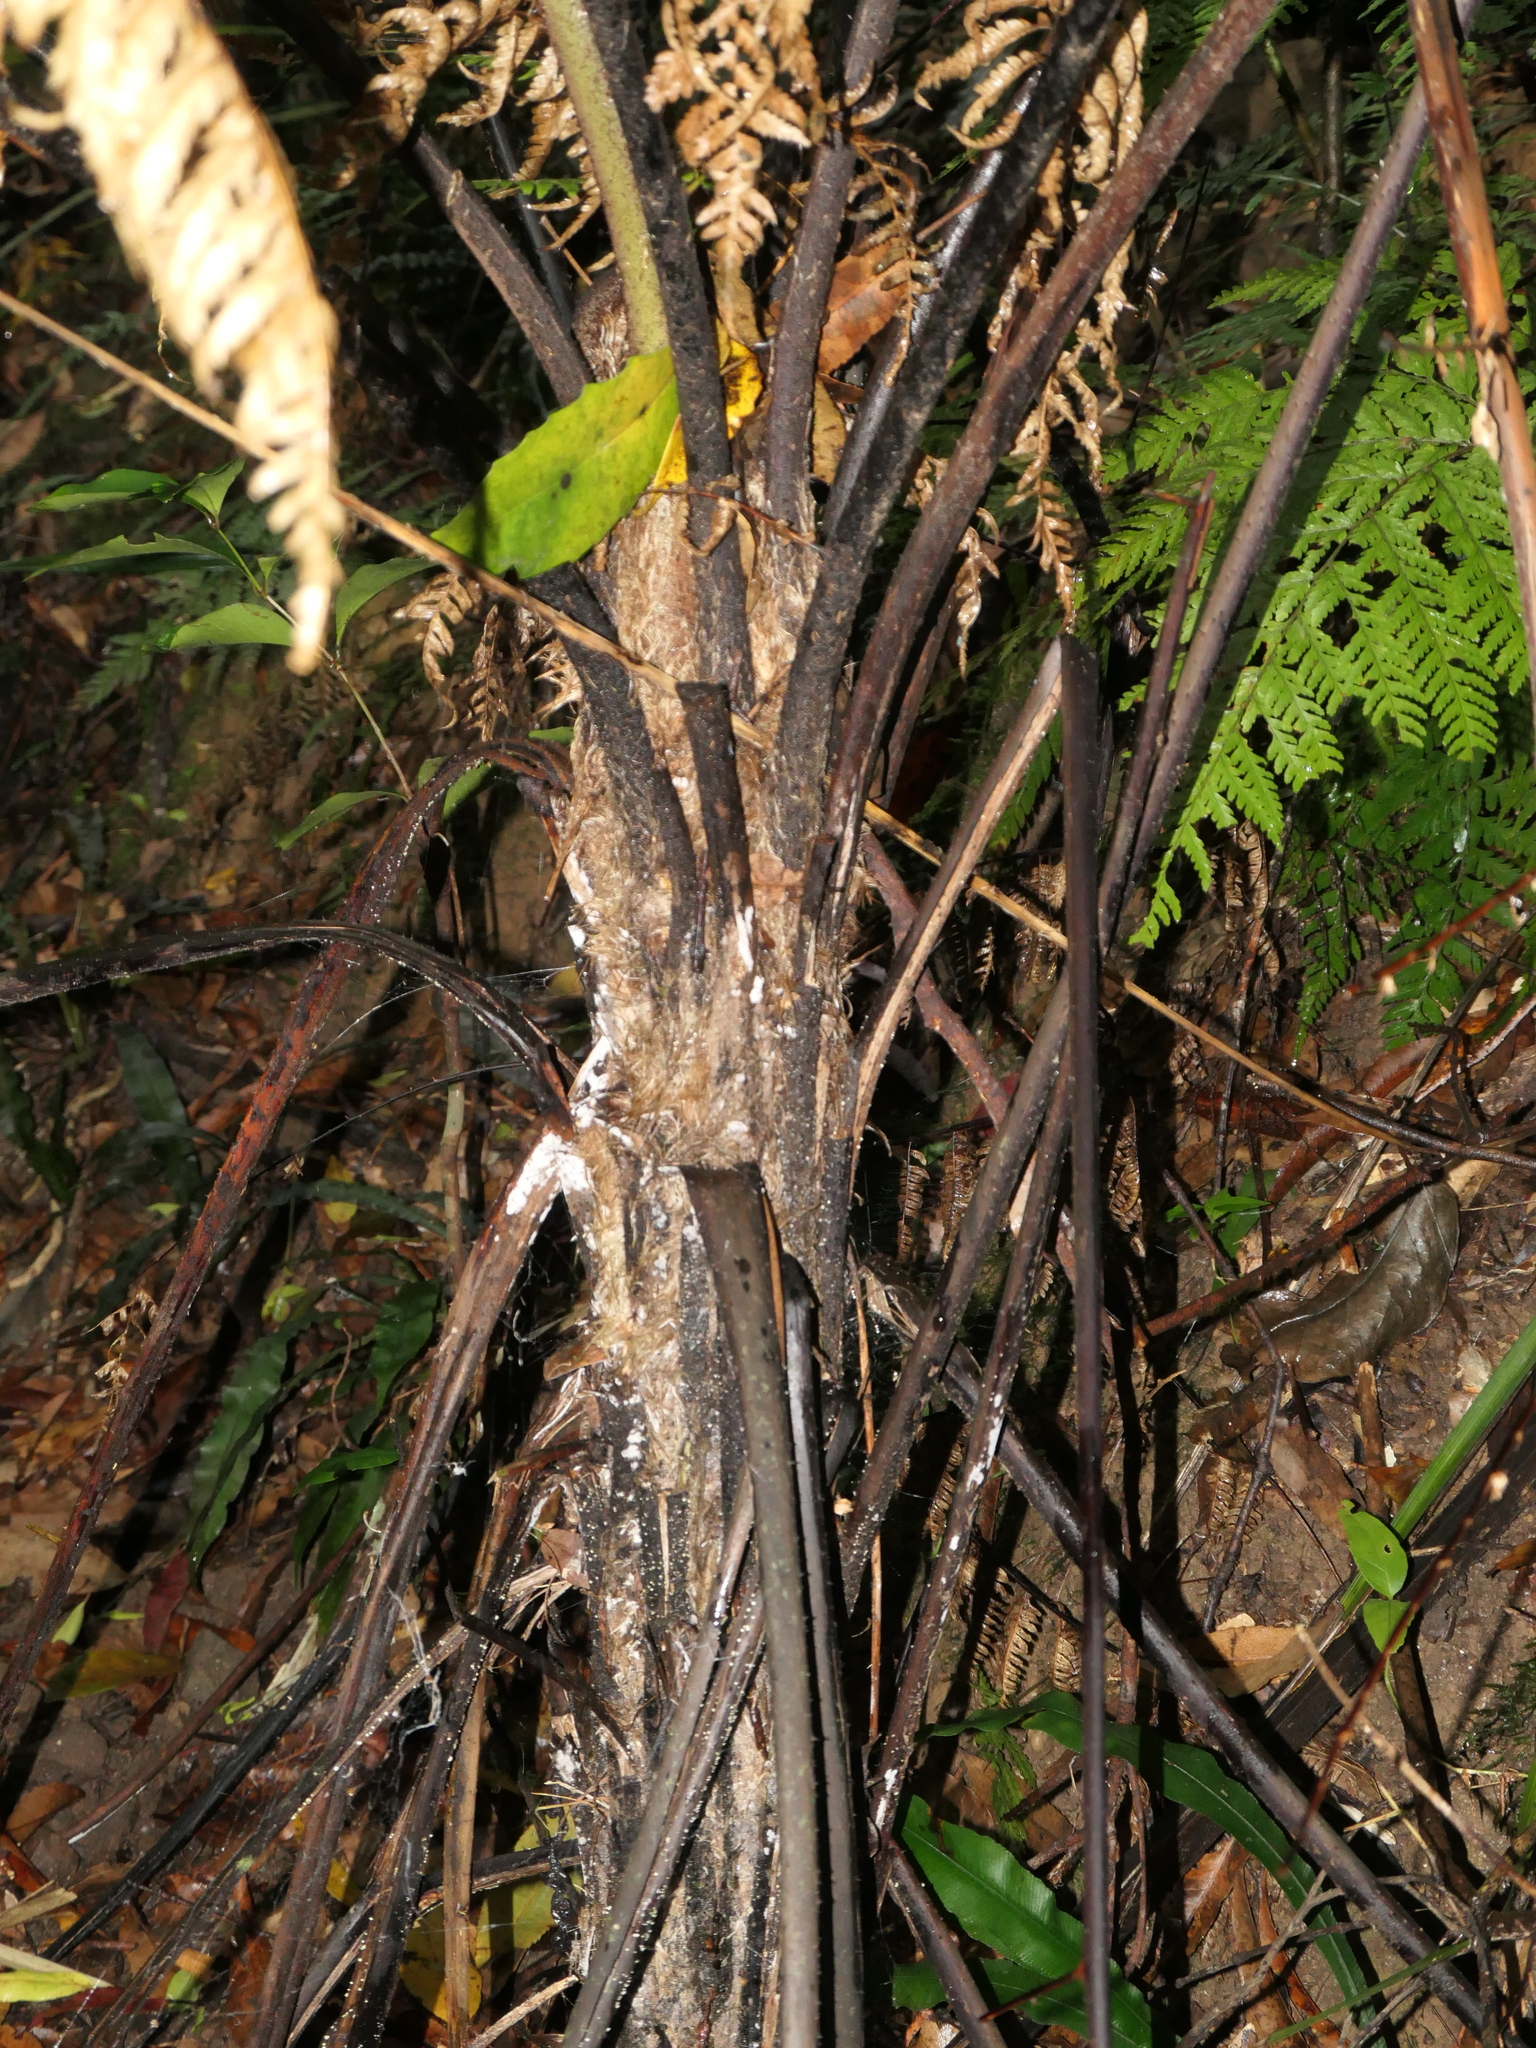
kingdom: Plantae
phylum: Tracheophyta
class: Polypodiopsida
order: Cyatheales
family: Cyatheaceae
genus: Cyathea
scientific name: Cyathea cunninghamii
